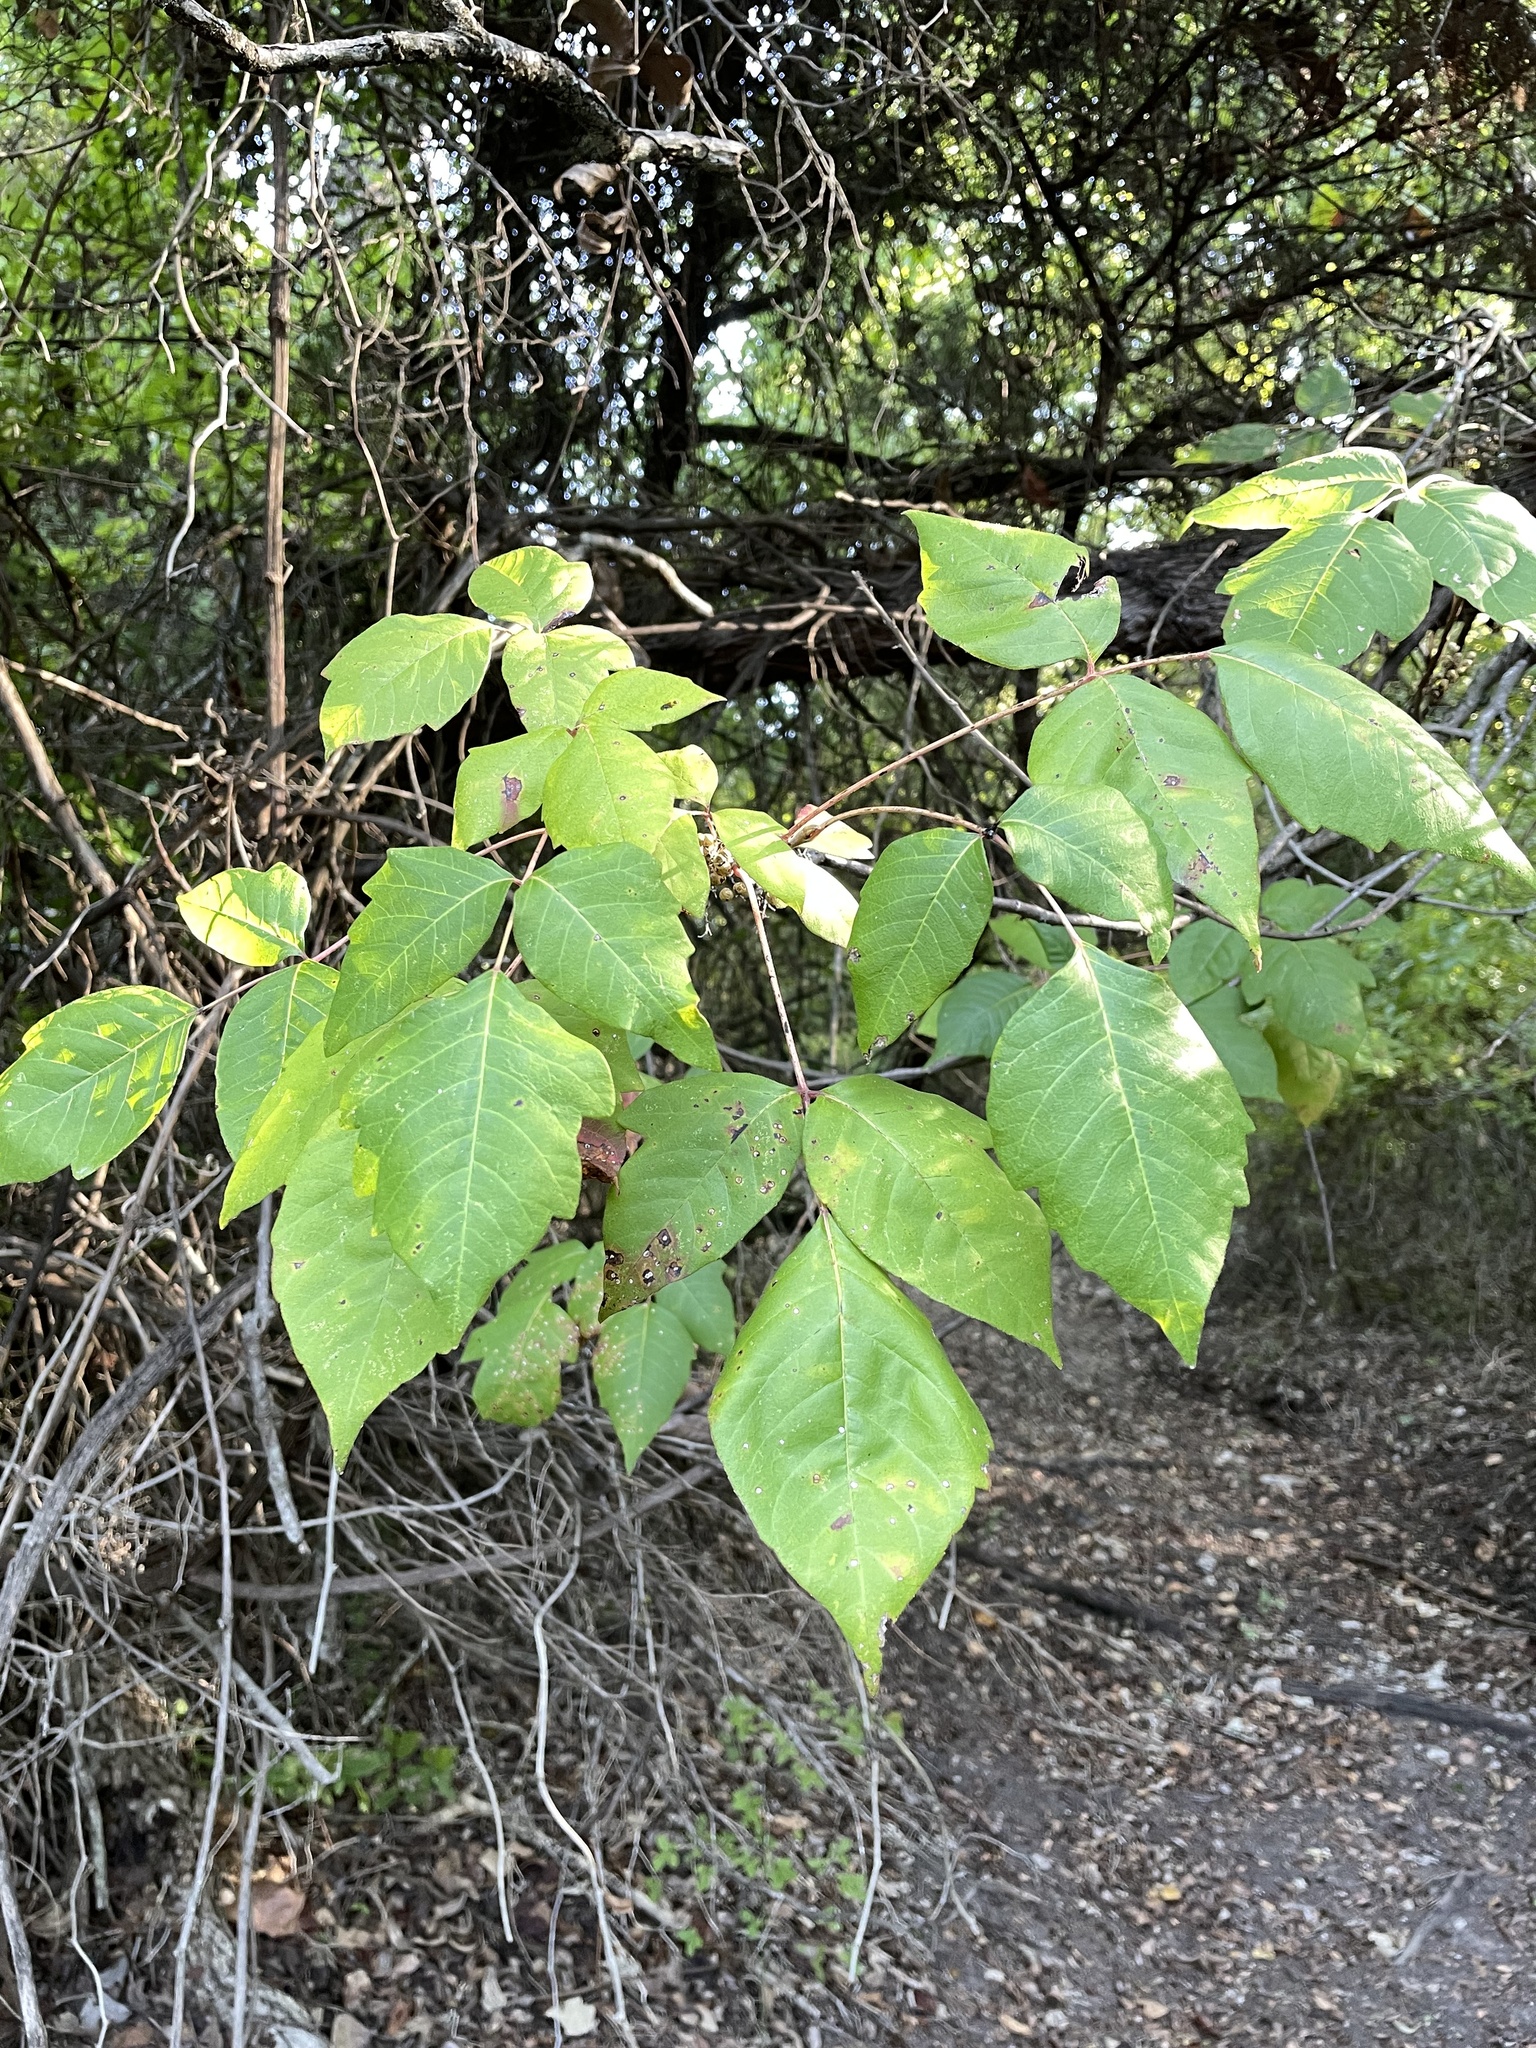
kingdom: Plantae
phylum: Tracheophyta
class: Magnoliopsida
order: Sapindales
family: Anacardiaceae
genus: Toxicodendron
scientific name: Toxicodendron radicans
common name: Poison ivy
